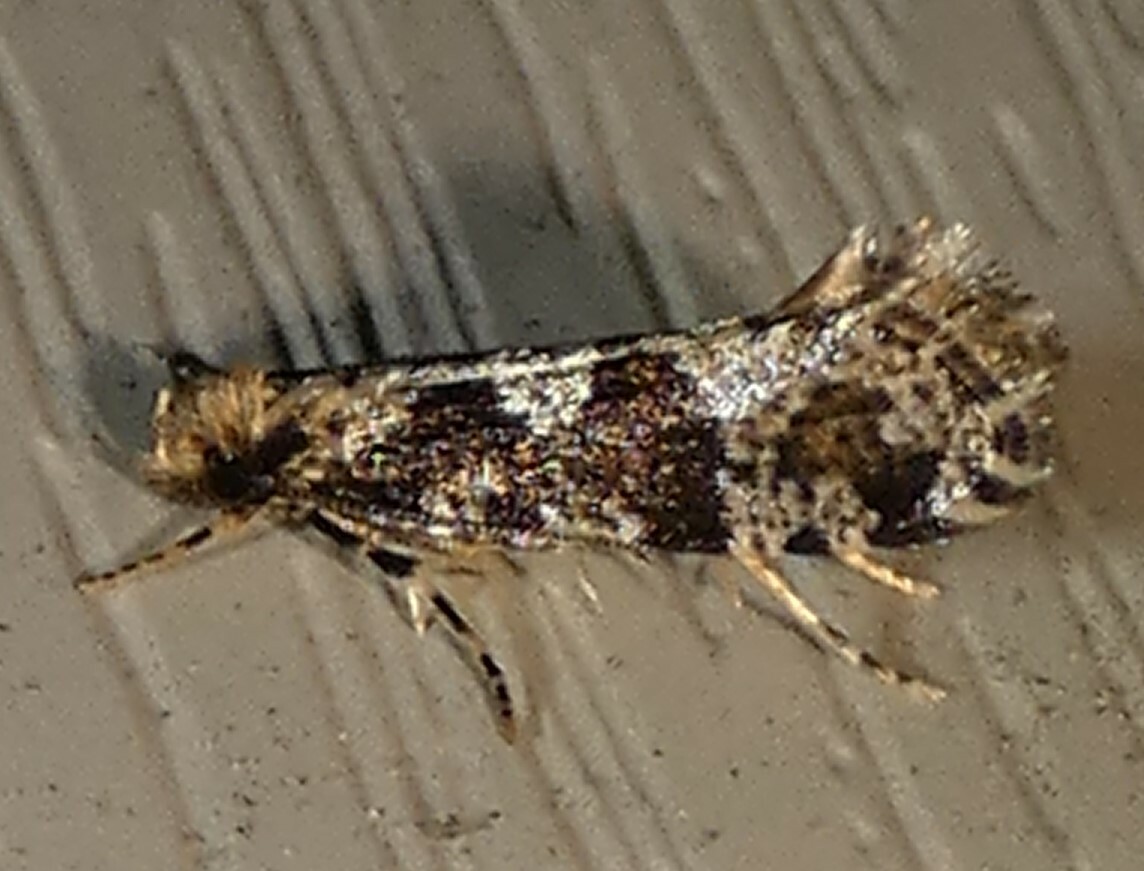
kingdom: Animalia
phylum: Arthropoda
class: Insecta
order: Lepidoptera
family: Tineidae
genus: Scardiella
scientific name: Scardiella approximatella
